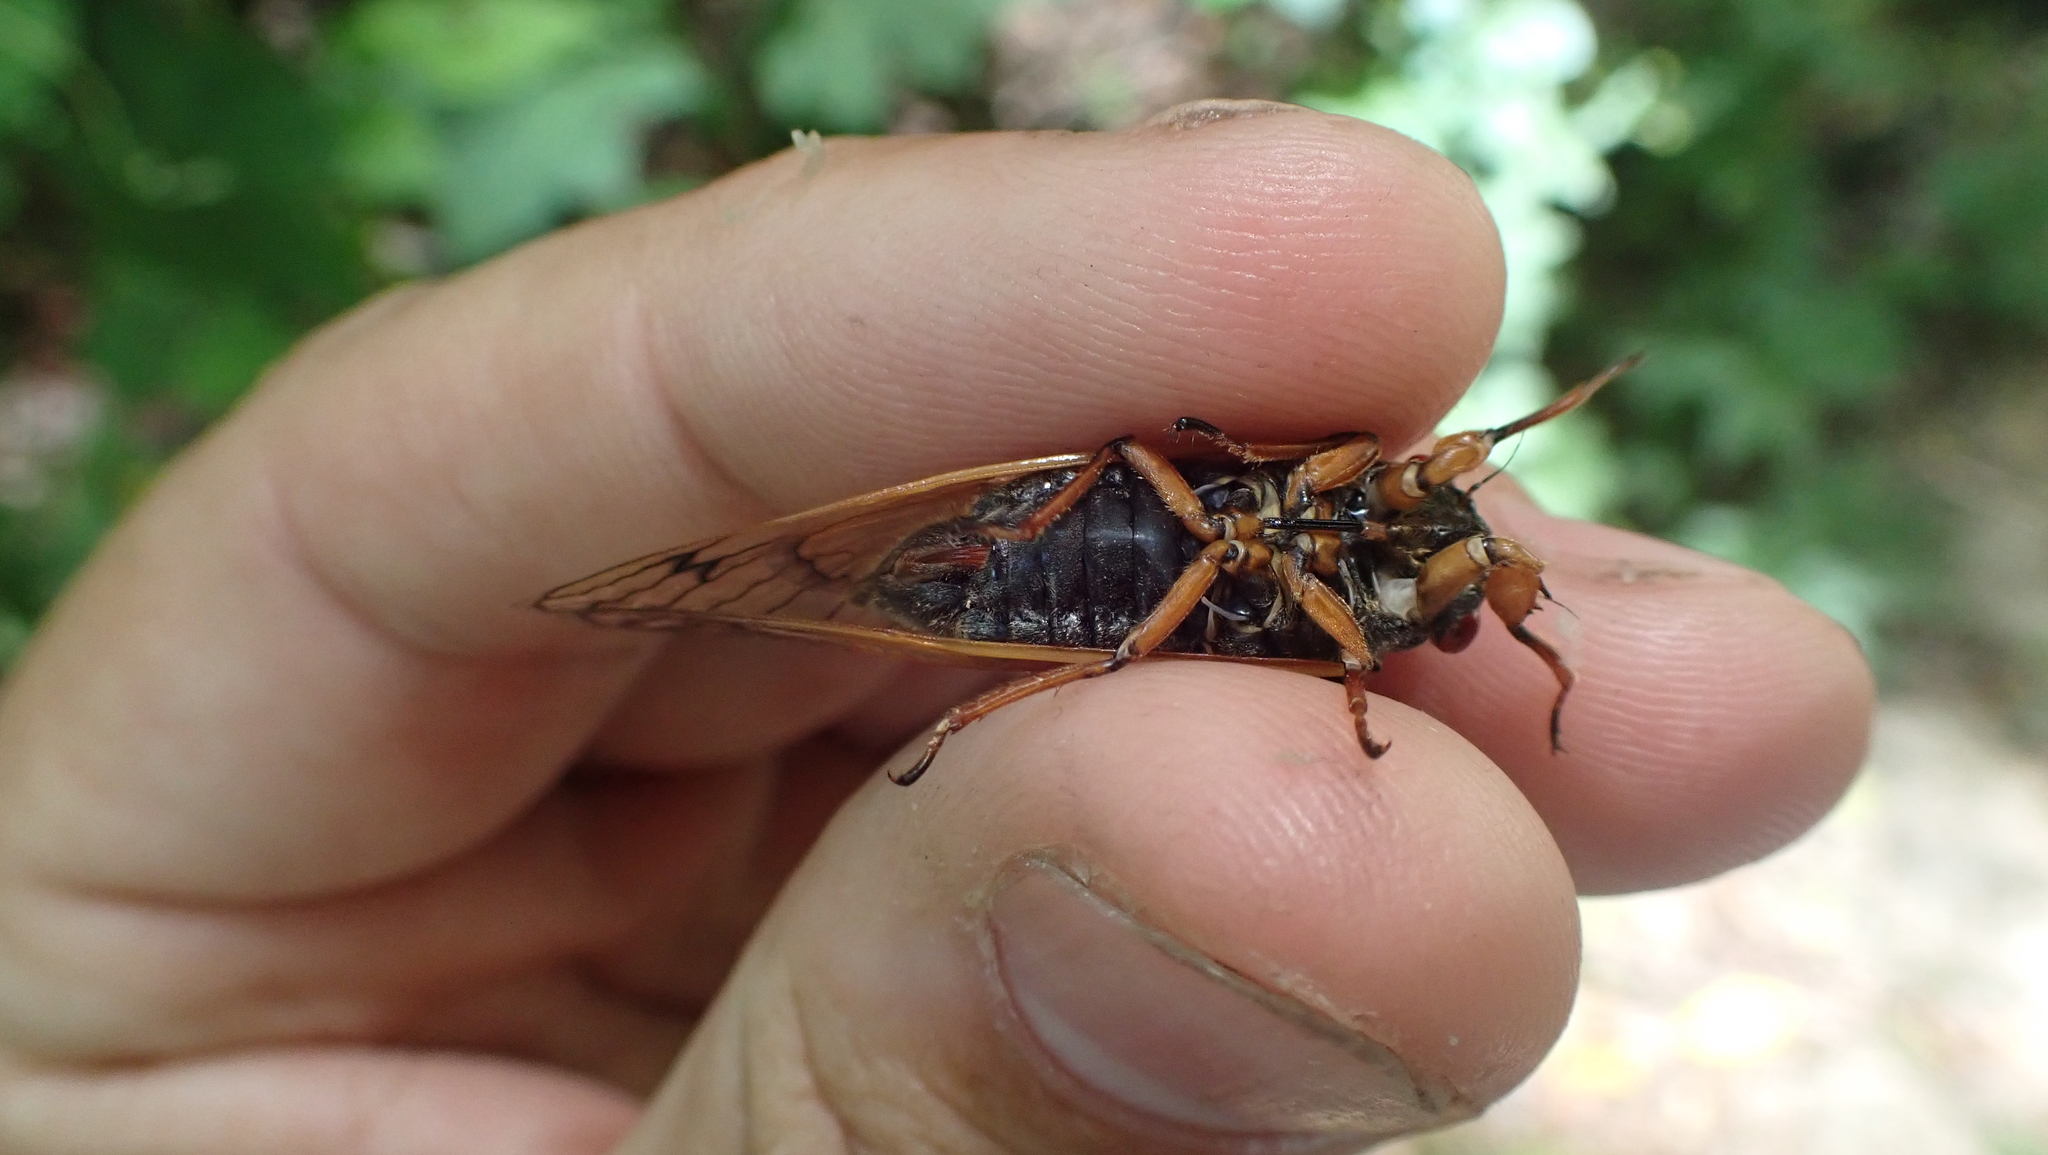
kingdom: Animalia
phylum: Arthropoda
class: Insecta
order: Hemiptera
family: Cicadidae
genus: Magicicada
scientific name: Magicicada cassini
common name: Cassin's 17-year cicada
